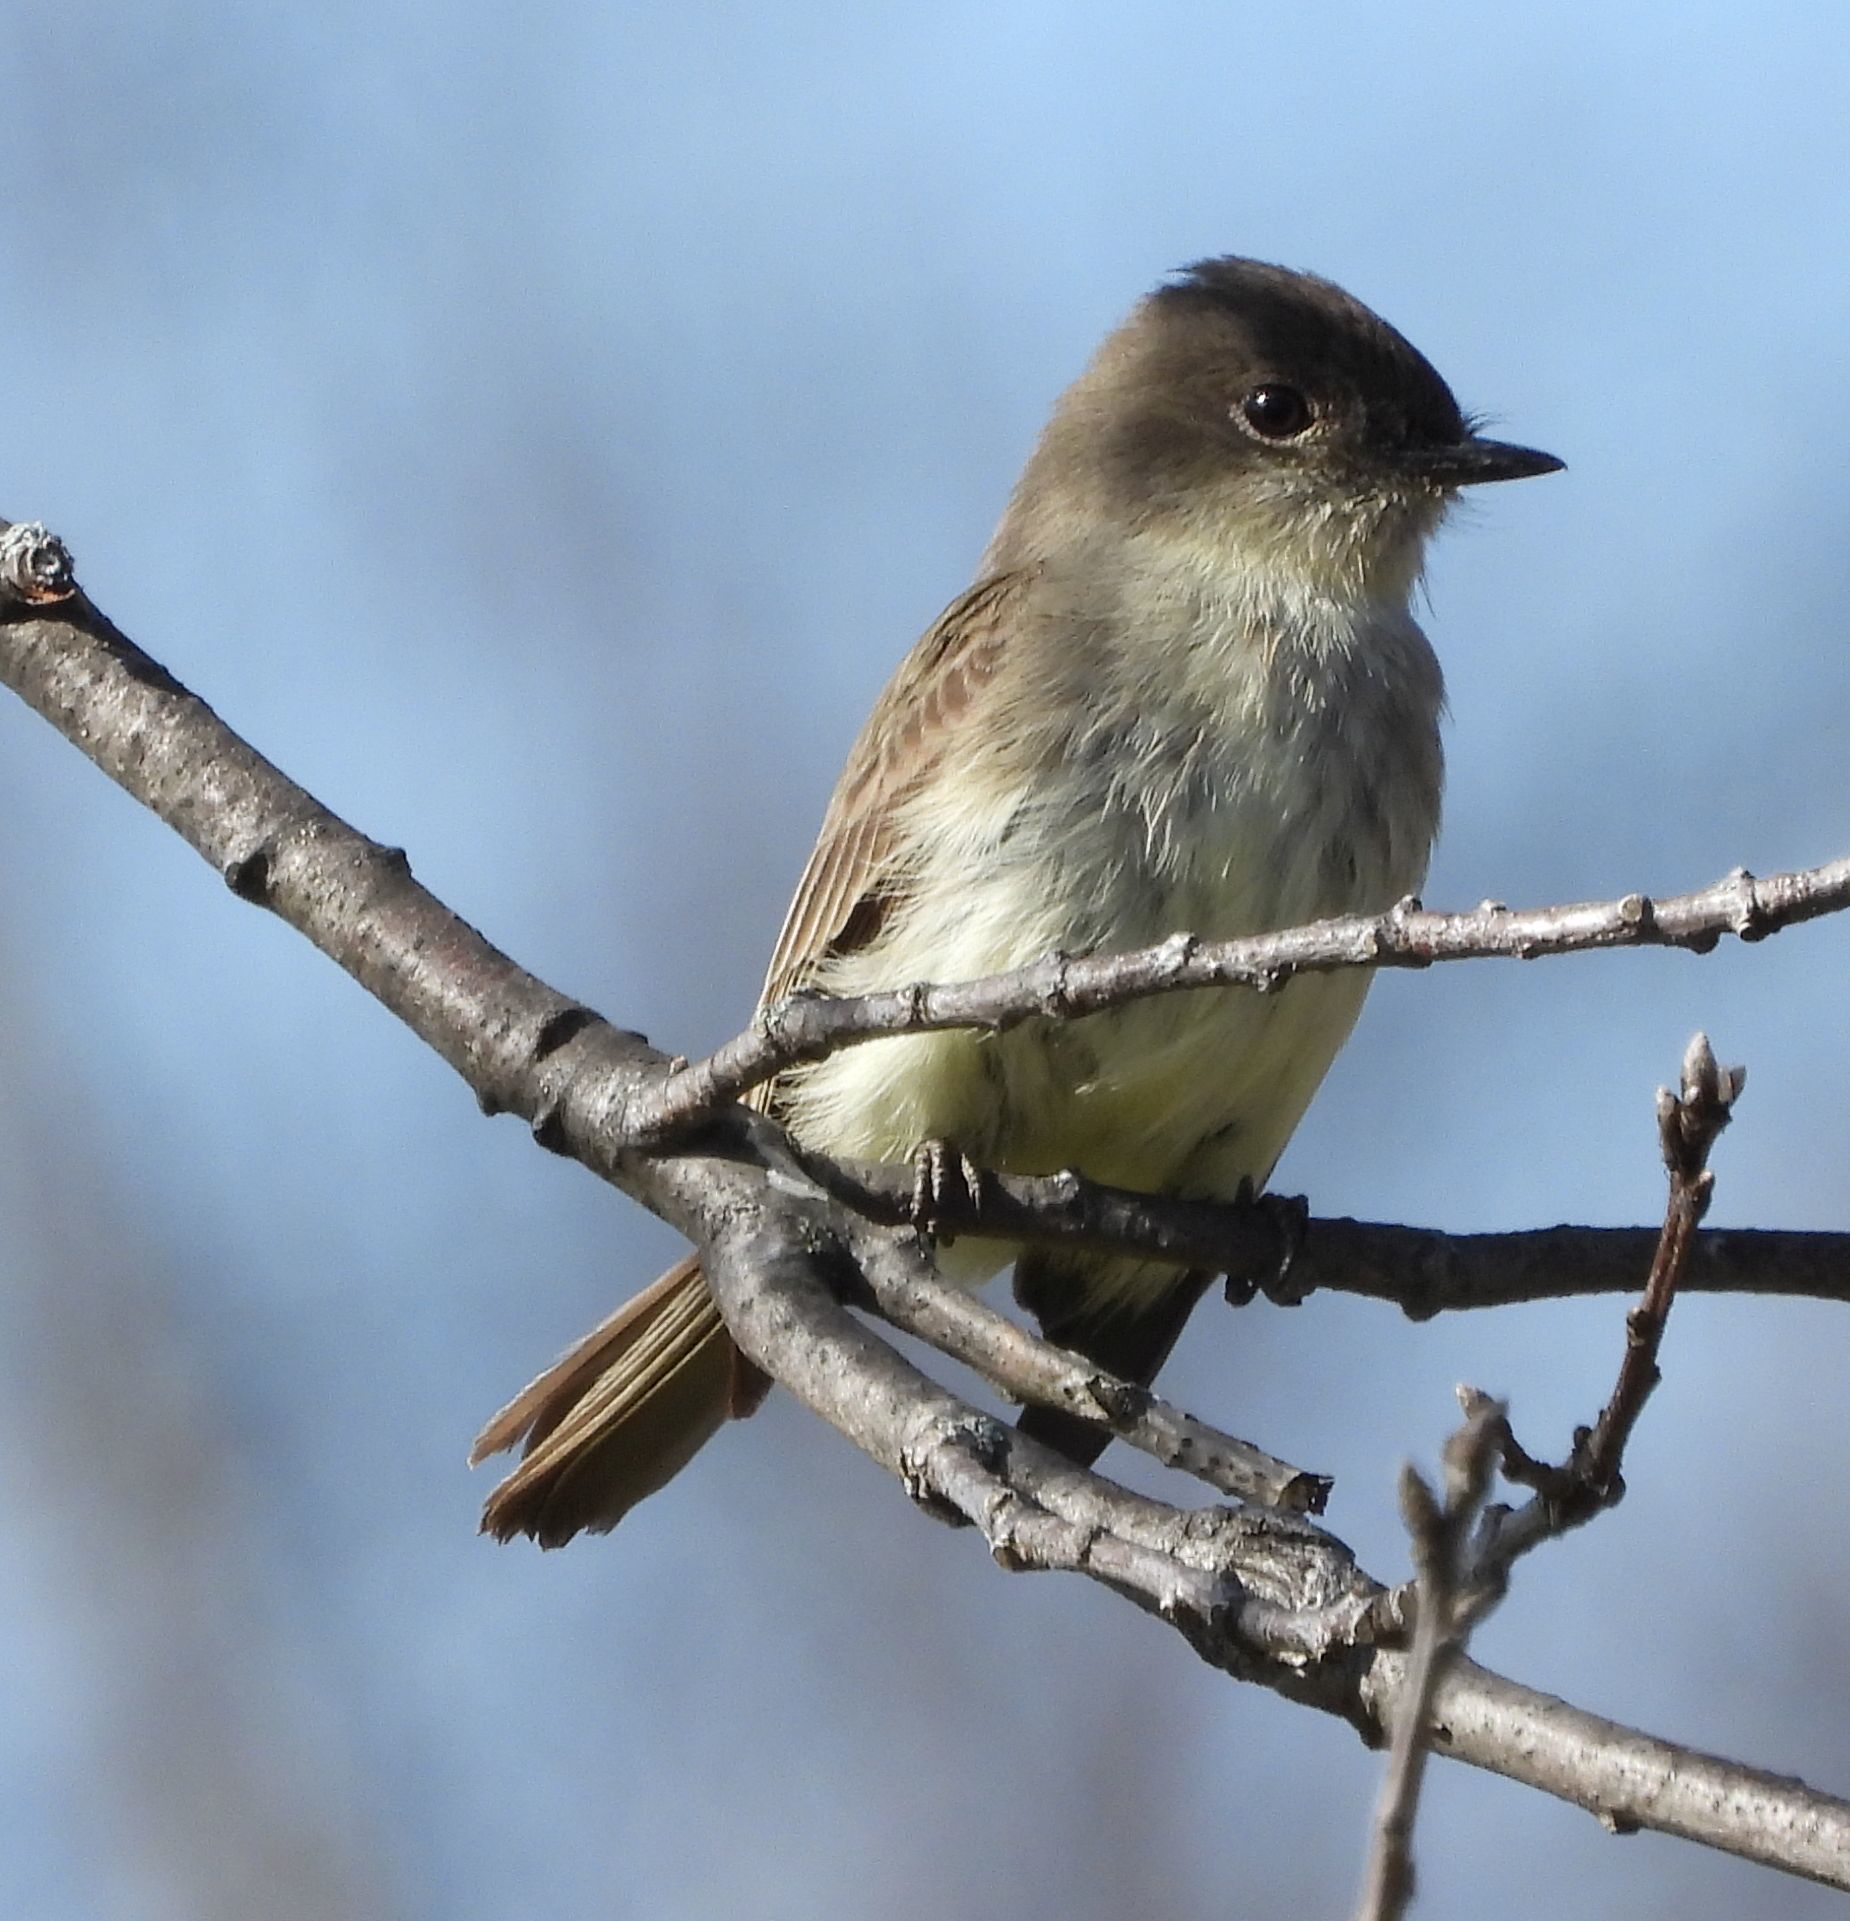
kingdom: Animalia
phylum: Chordata
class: Aves
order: Passeriformes
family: Tyrannidae
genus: Sayornis
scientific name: Sayornis phoebe
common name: Eastern phoebe
